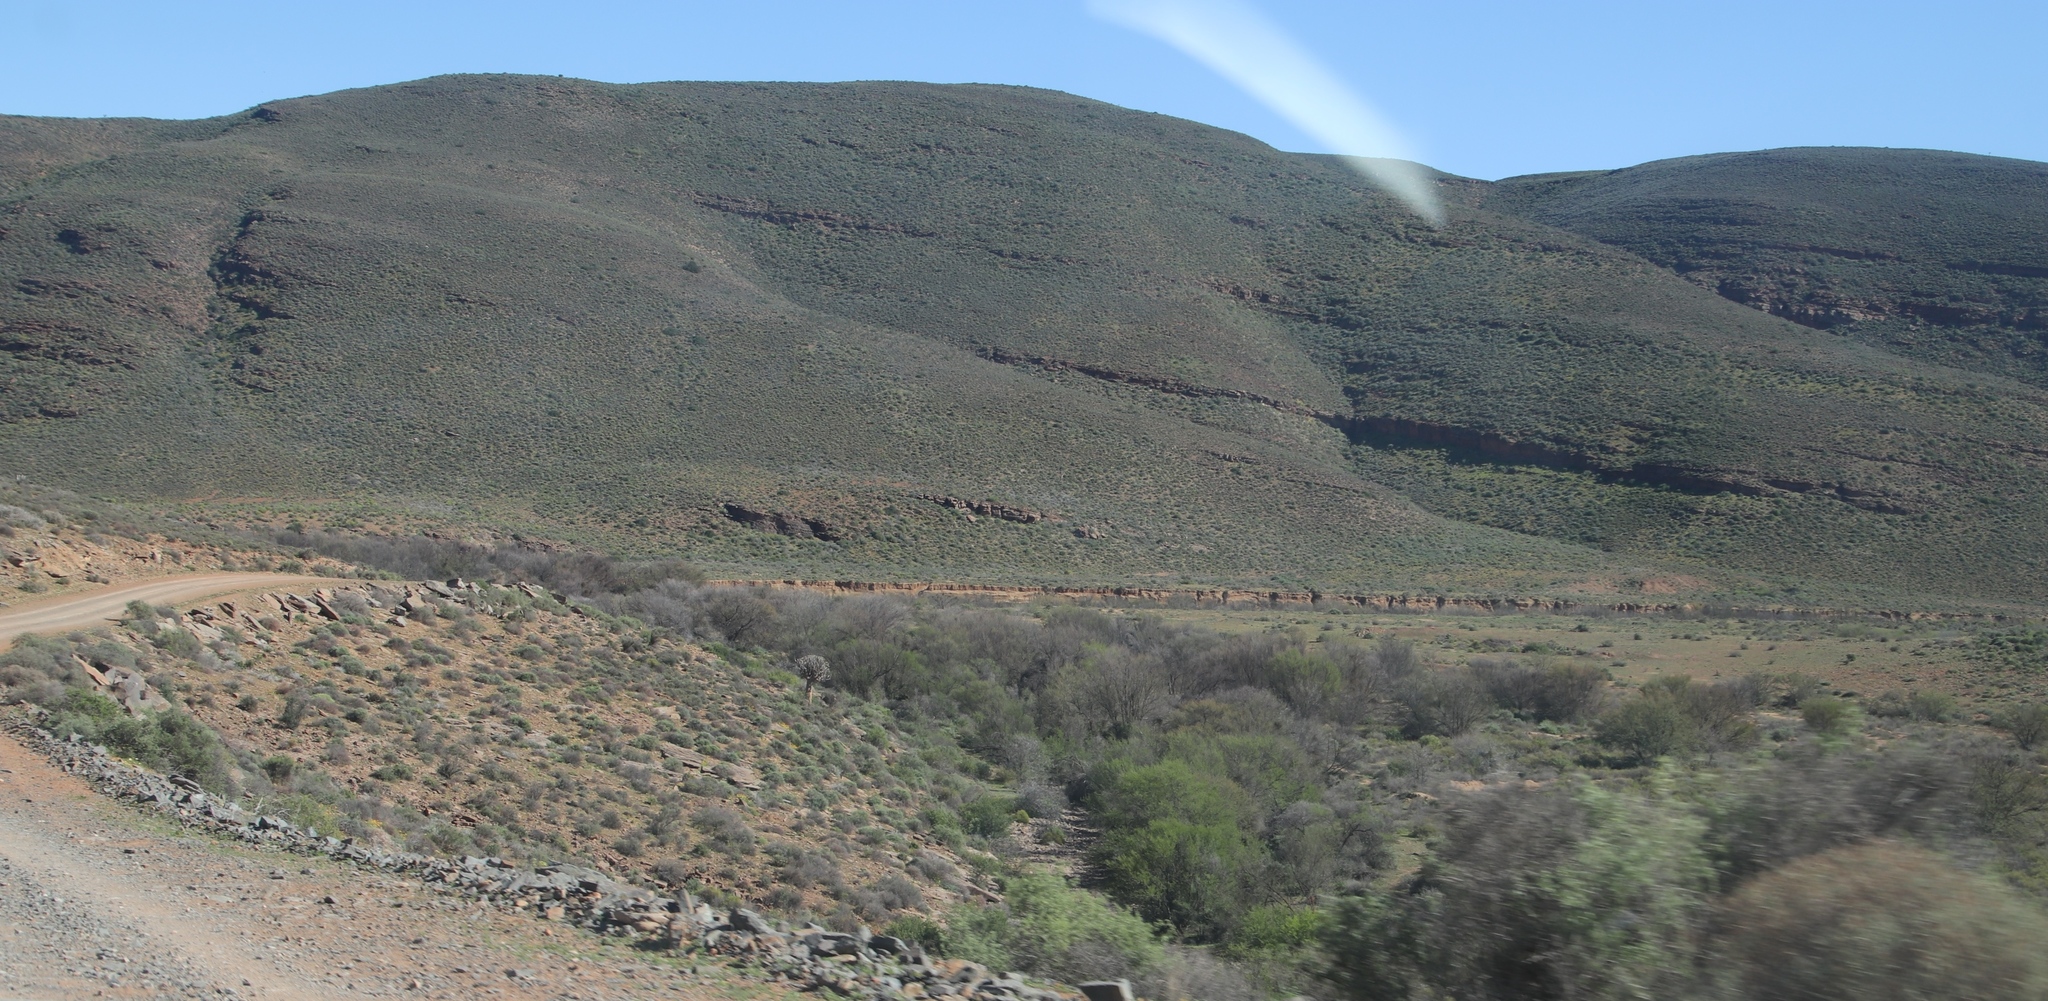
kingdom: Plantae
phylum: Tracheophyta
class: Magnoliopsida
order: Fabales
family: Fabaceae
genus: Vachellia
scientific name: Vachellia karroo
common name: Sweet thorn
